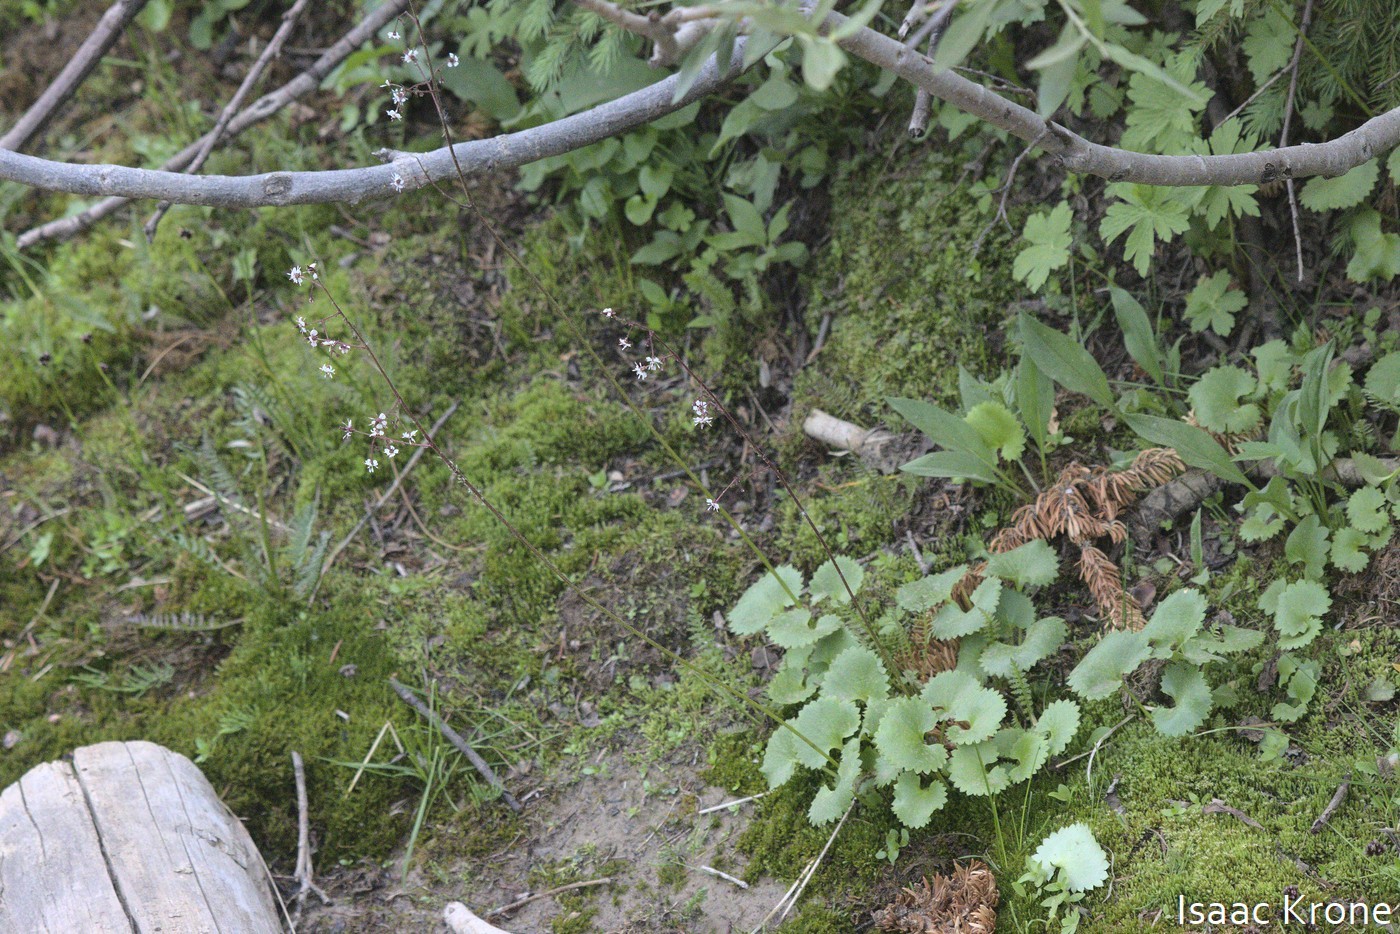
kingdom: Plantae
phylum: Tracheophyta
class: Magnoliopsida
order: Saxifragales
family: Saxifragaceae
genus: Micranthes
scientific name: Micranthes odontoloma
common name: Brook saxifrage
